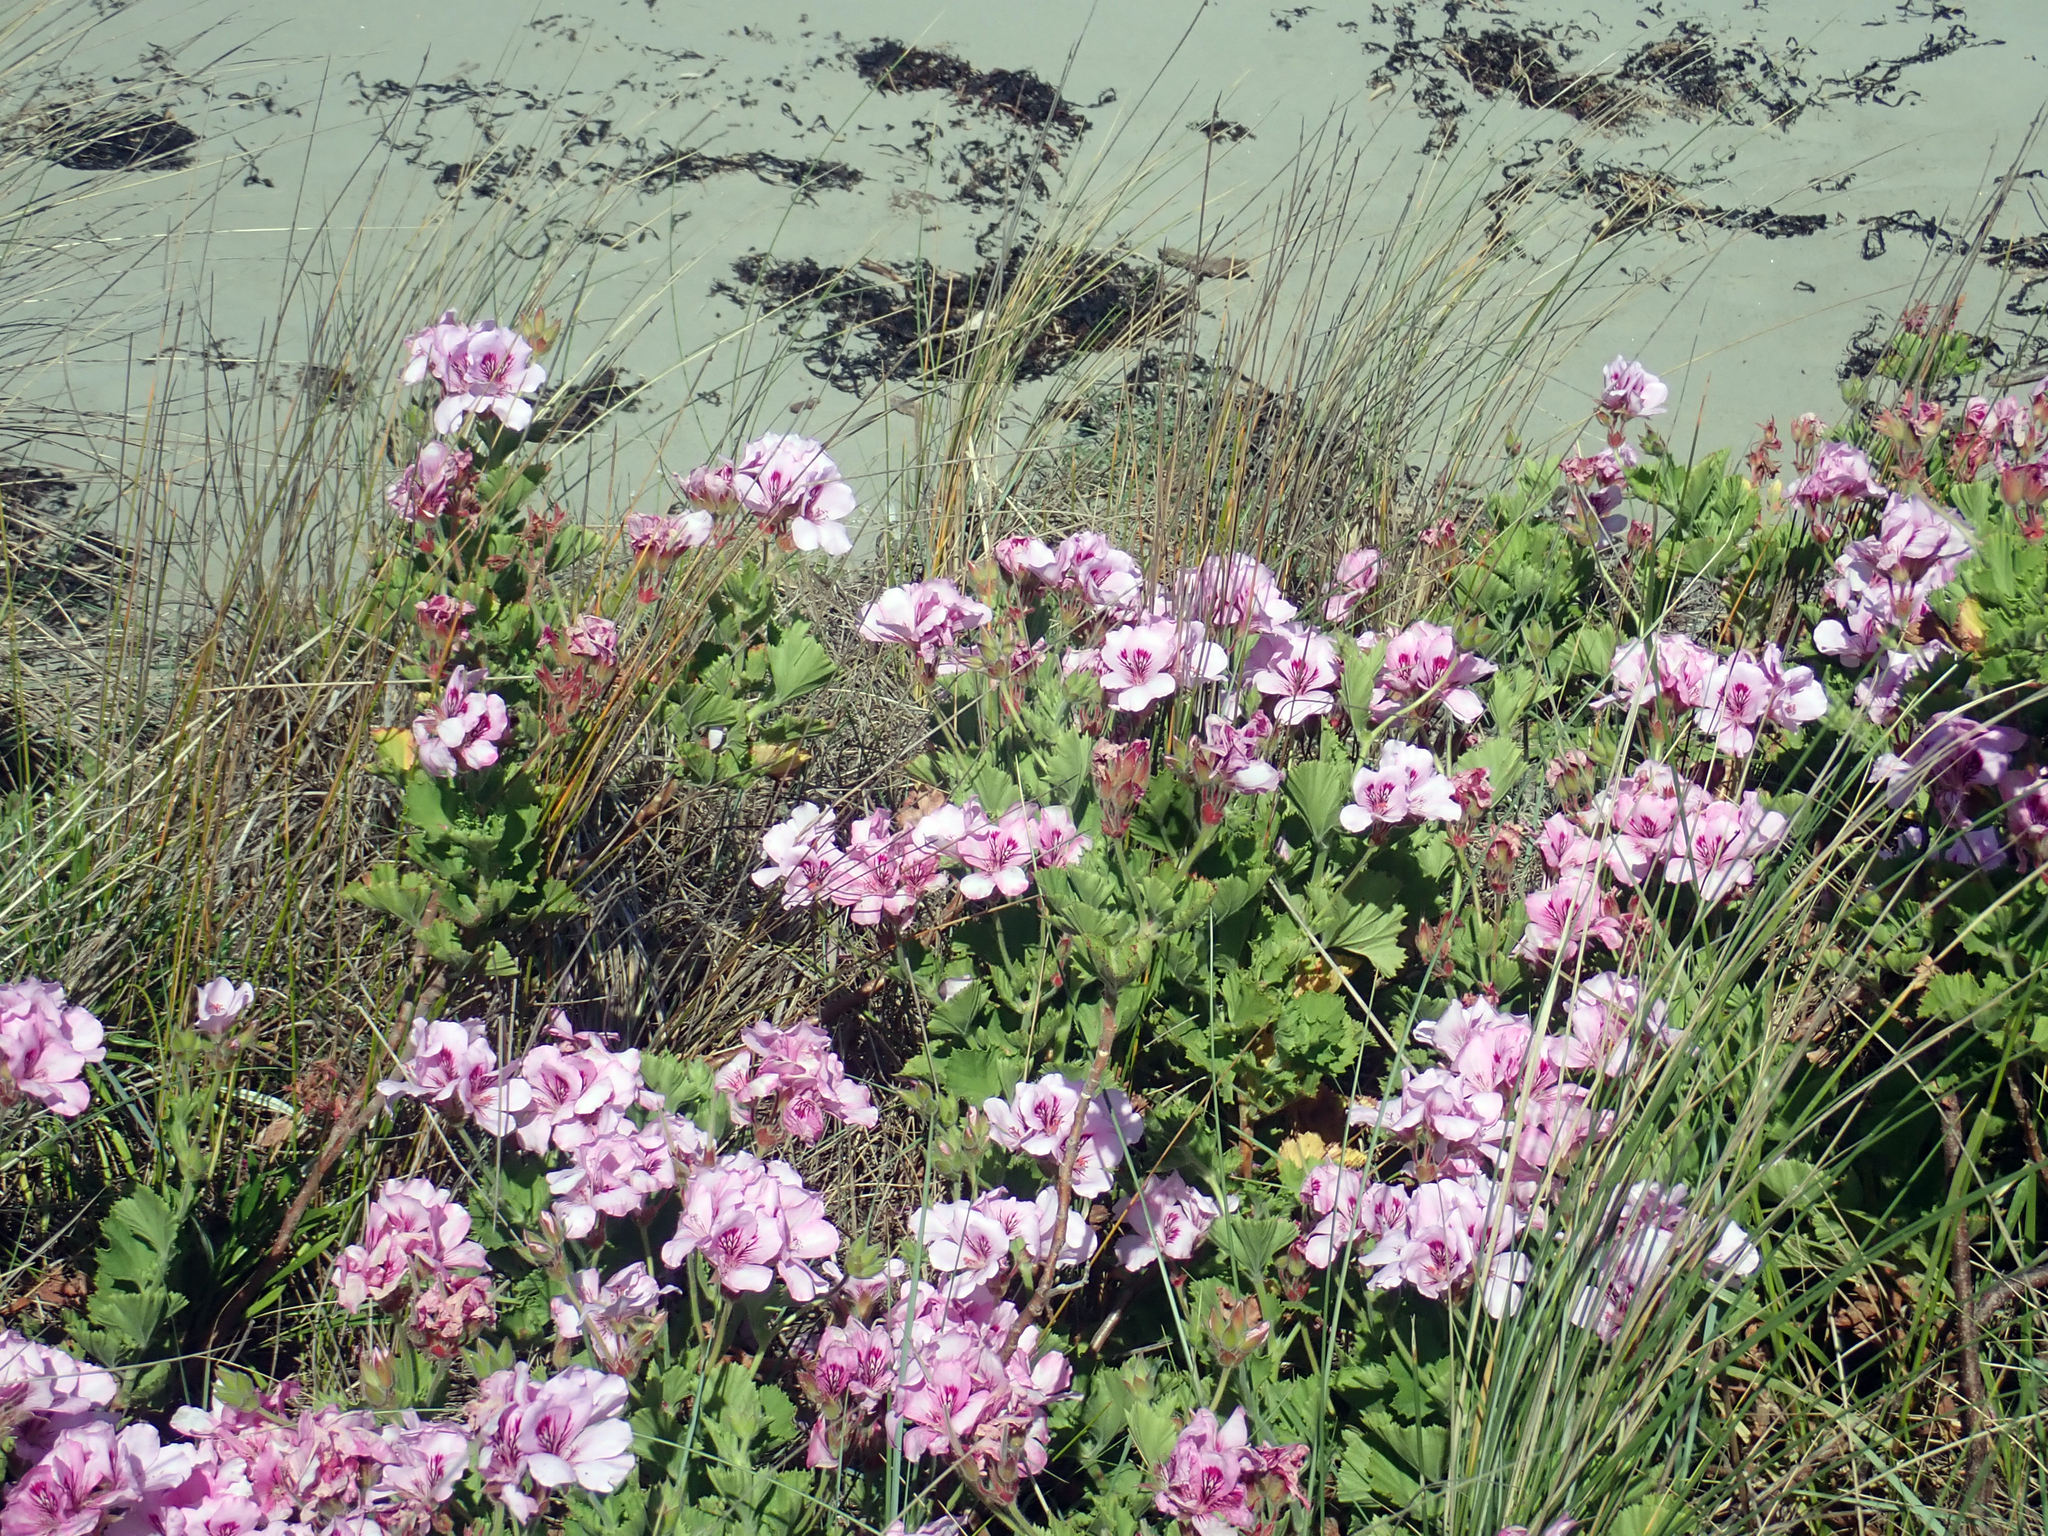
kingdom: Plantae
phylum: Tracheophyta
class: Magnoliopsida
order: Geraniales
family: Geraniaceae
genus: Pelargonium
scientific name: Pelargonium cucullatum
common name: Tree pelargonium
